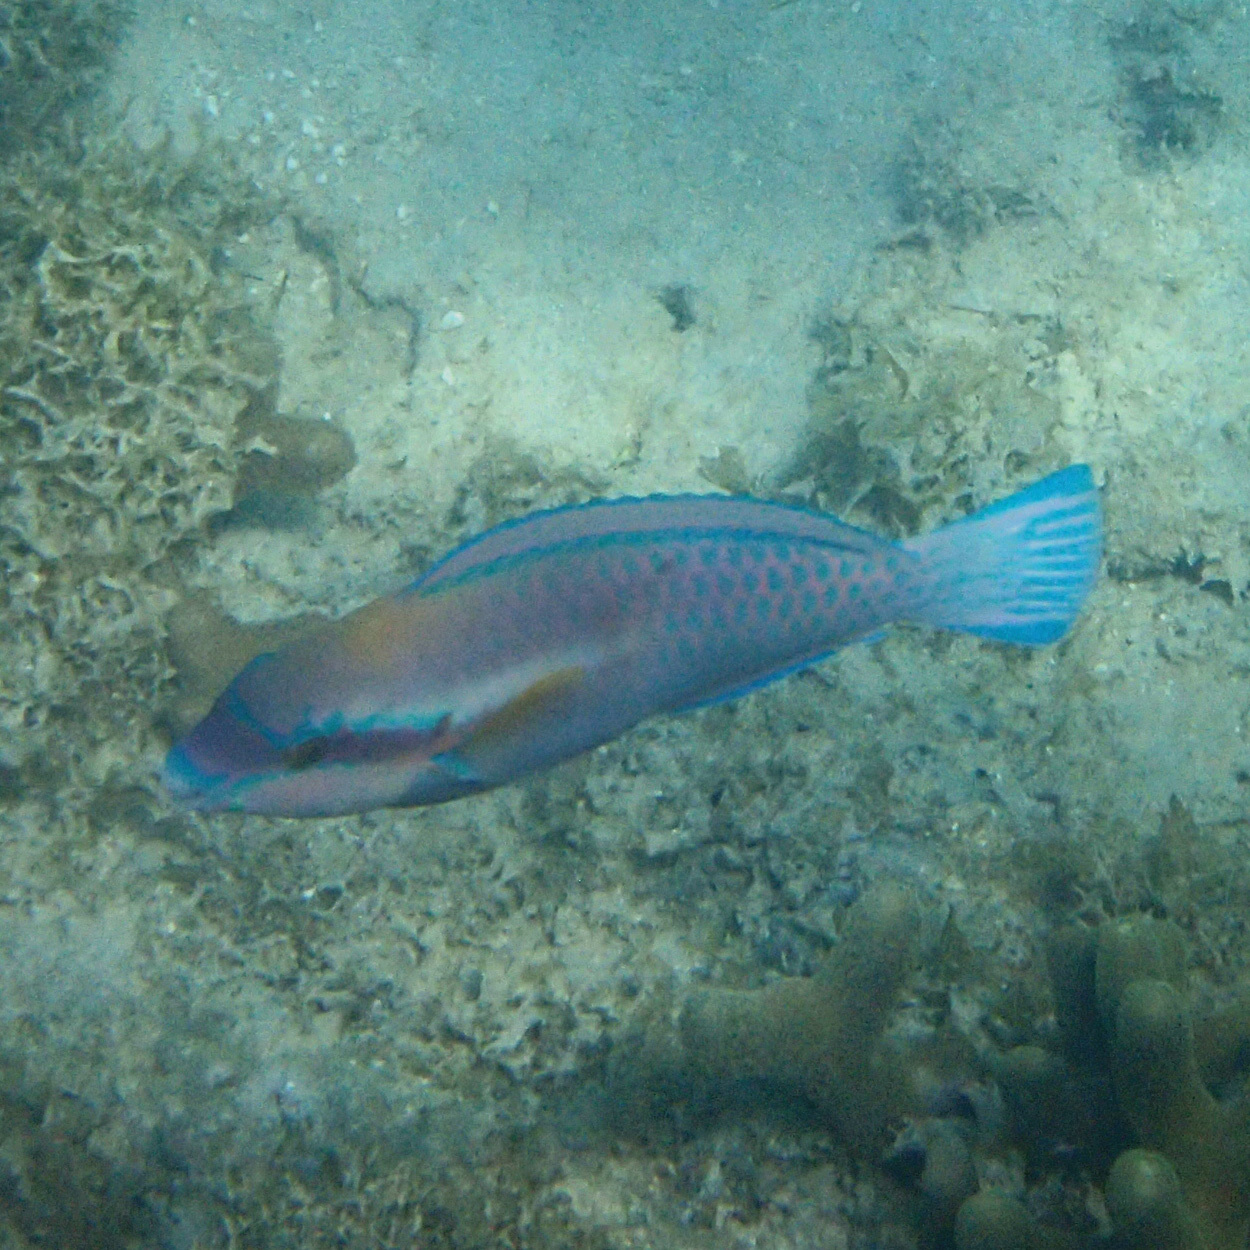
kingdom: Animalia
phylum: Chordata
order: Perciformes
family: Scaridae
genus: Scarus
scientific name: Scarus iseri
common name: Striped parrotfish
